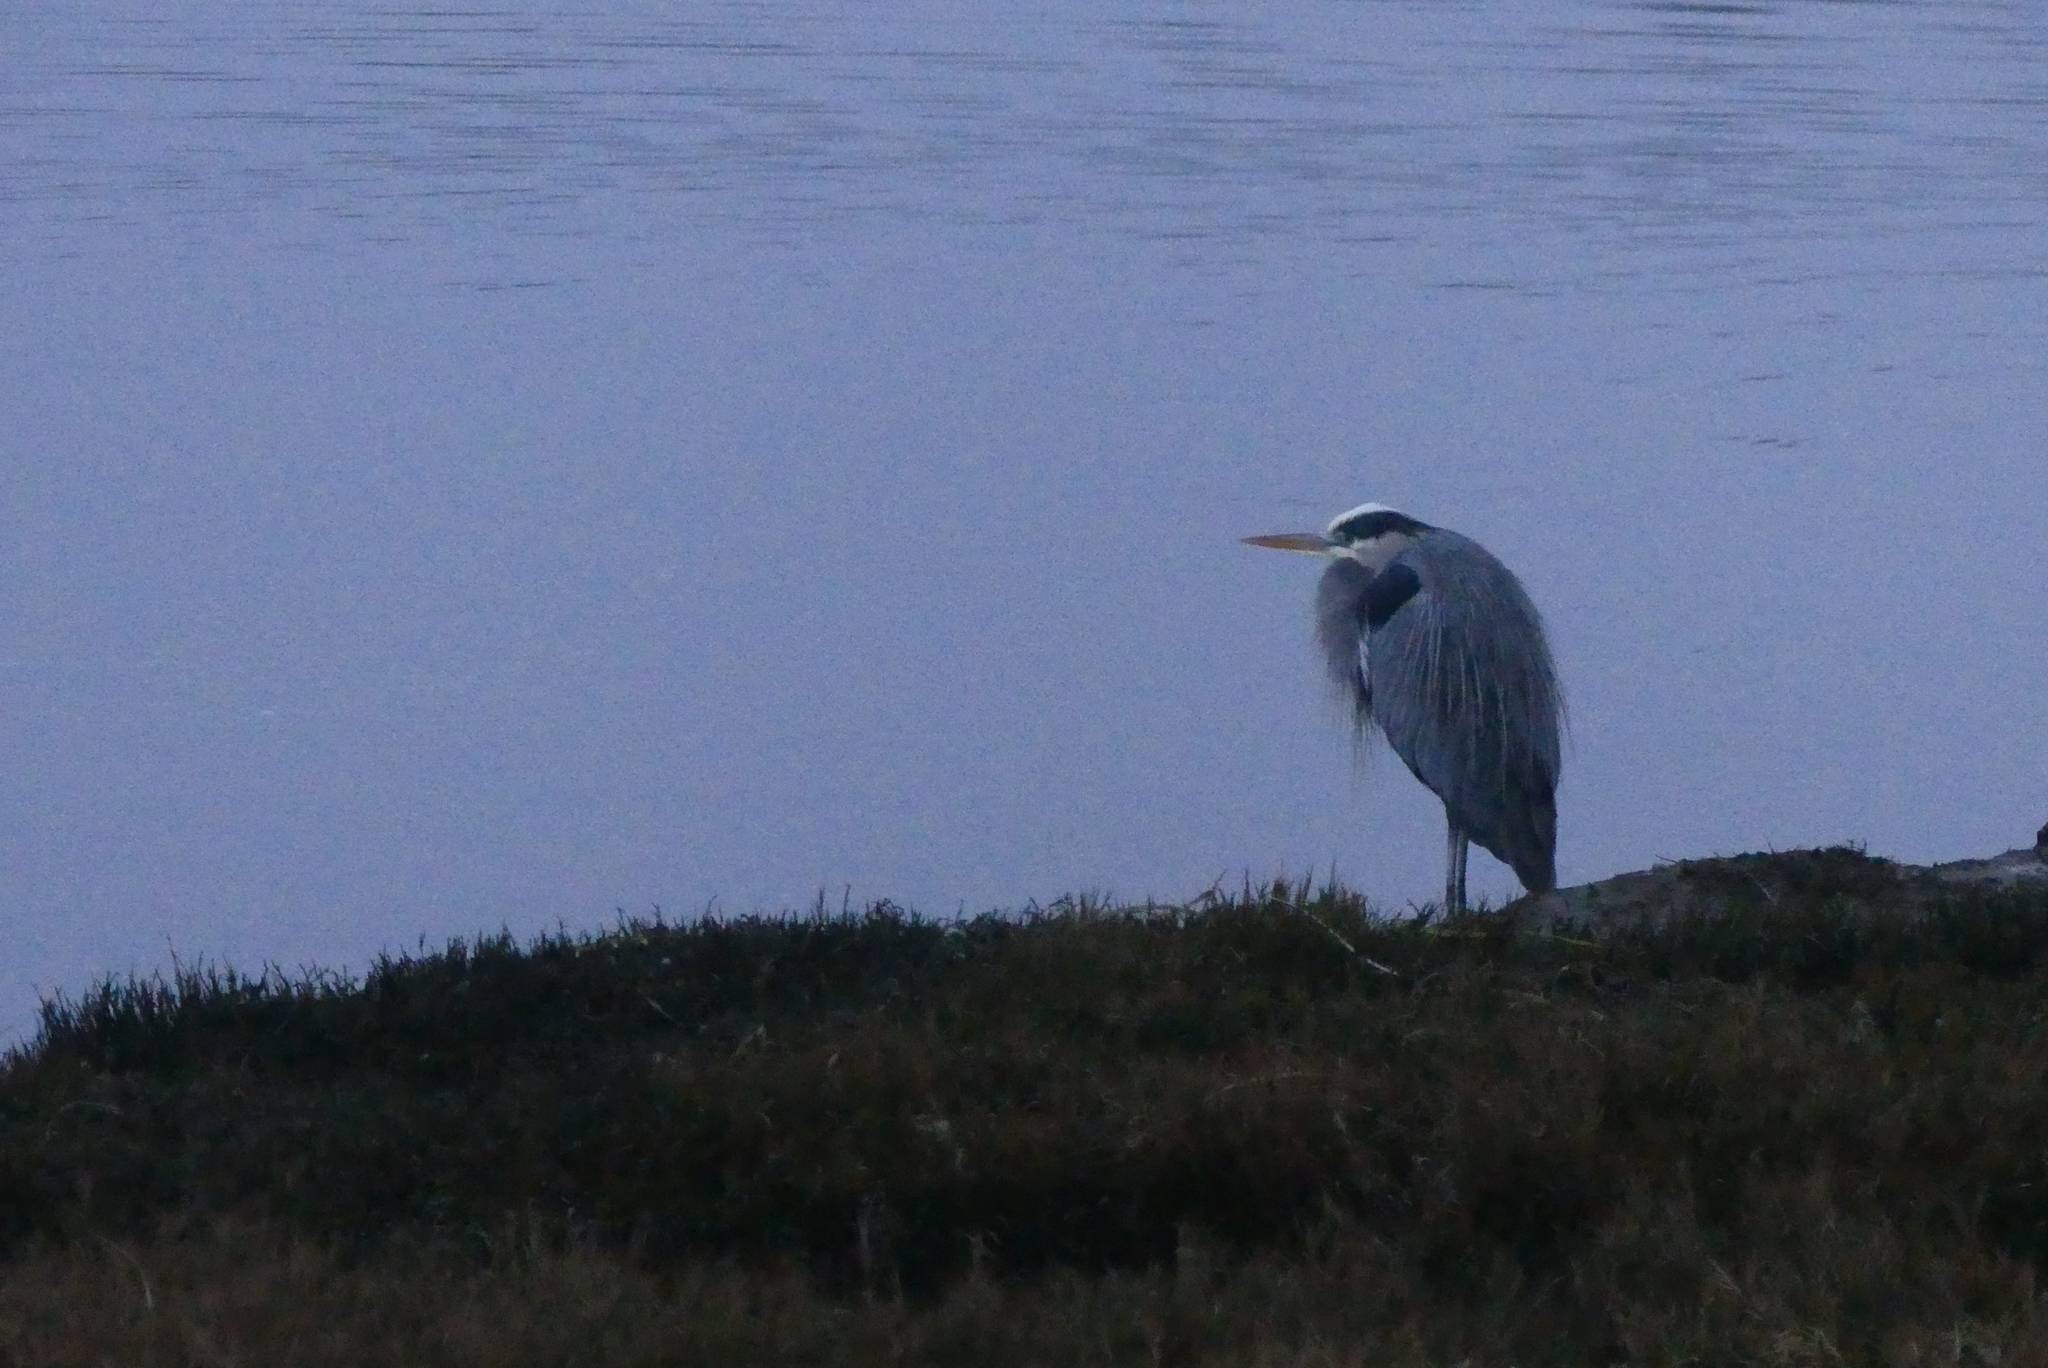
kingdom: Animalia
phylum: Chordata
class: Aves
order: Pelecaniformes
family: Ardeidae
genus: Ardea
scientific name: Ardea herodias
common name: Great blue heron
